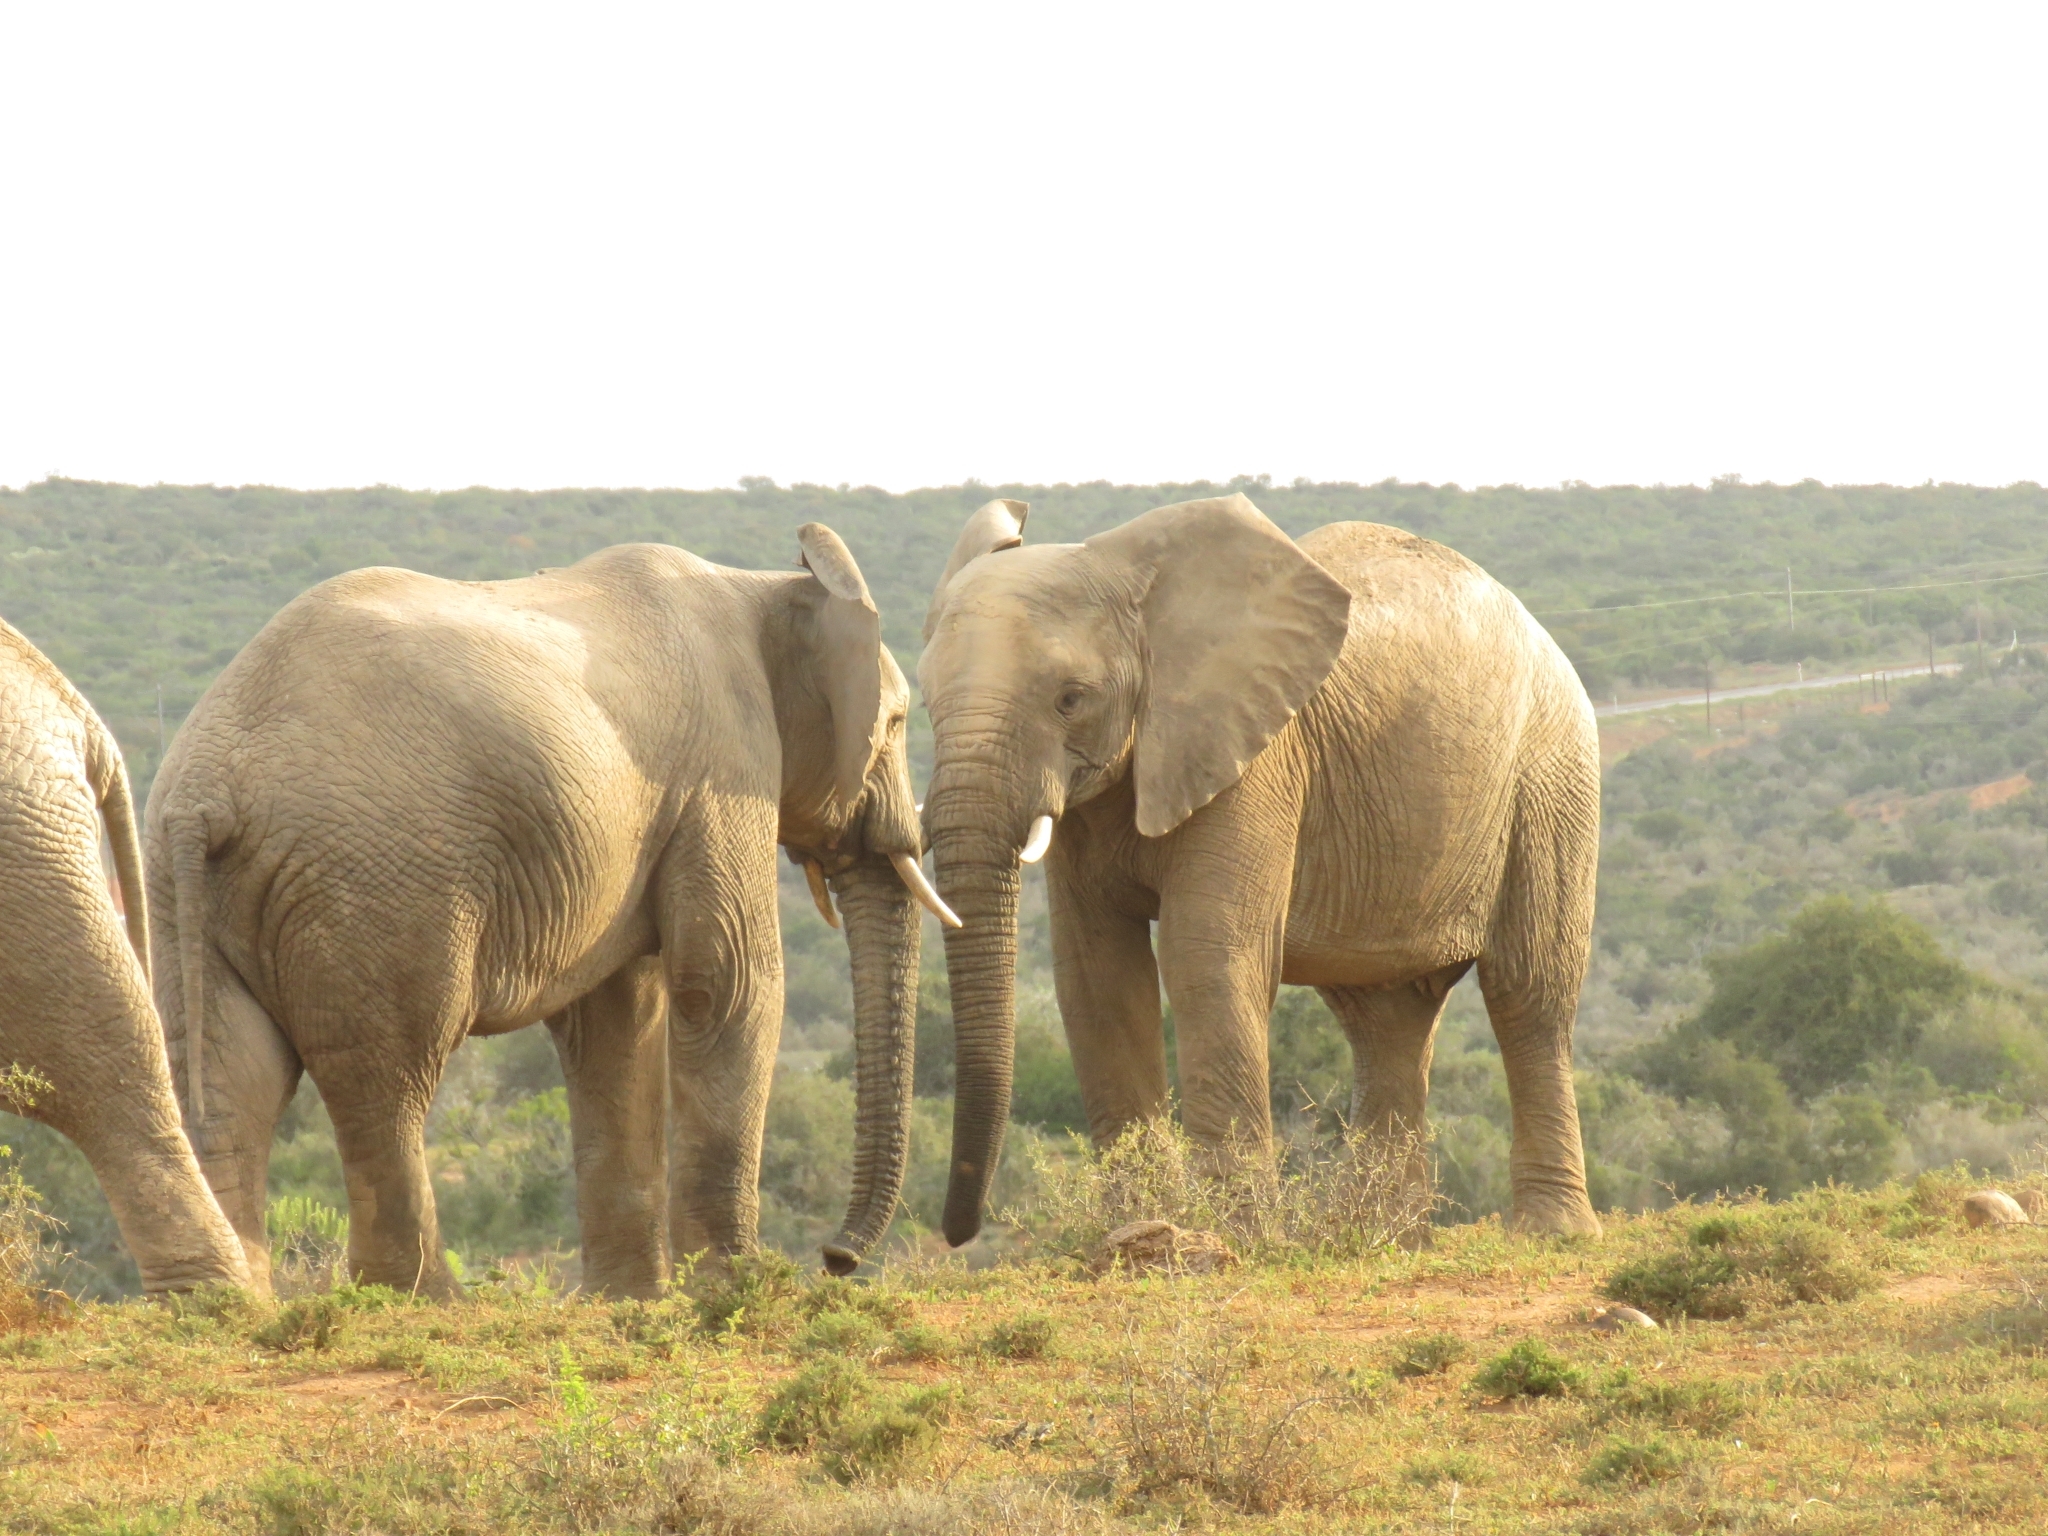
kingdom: Animalia
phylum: Chordata
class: Mammalia
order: Proboscidea
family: Elephantidae
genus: Loxodonta
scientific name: Loxodonta africana
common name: African elephant
